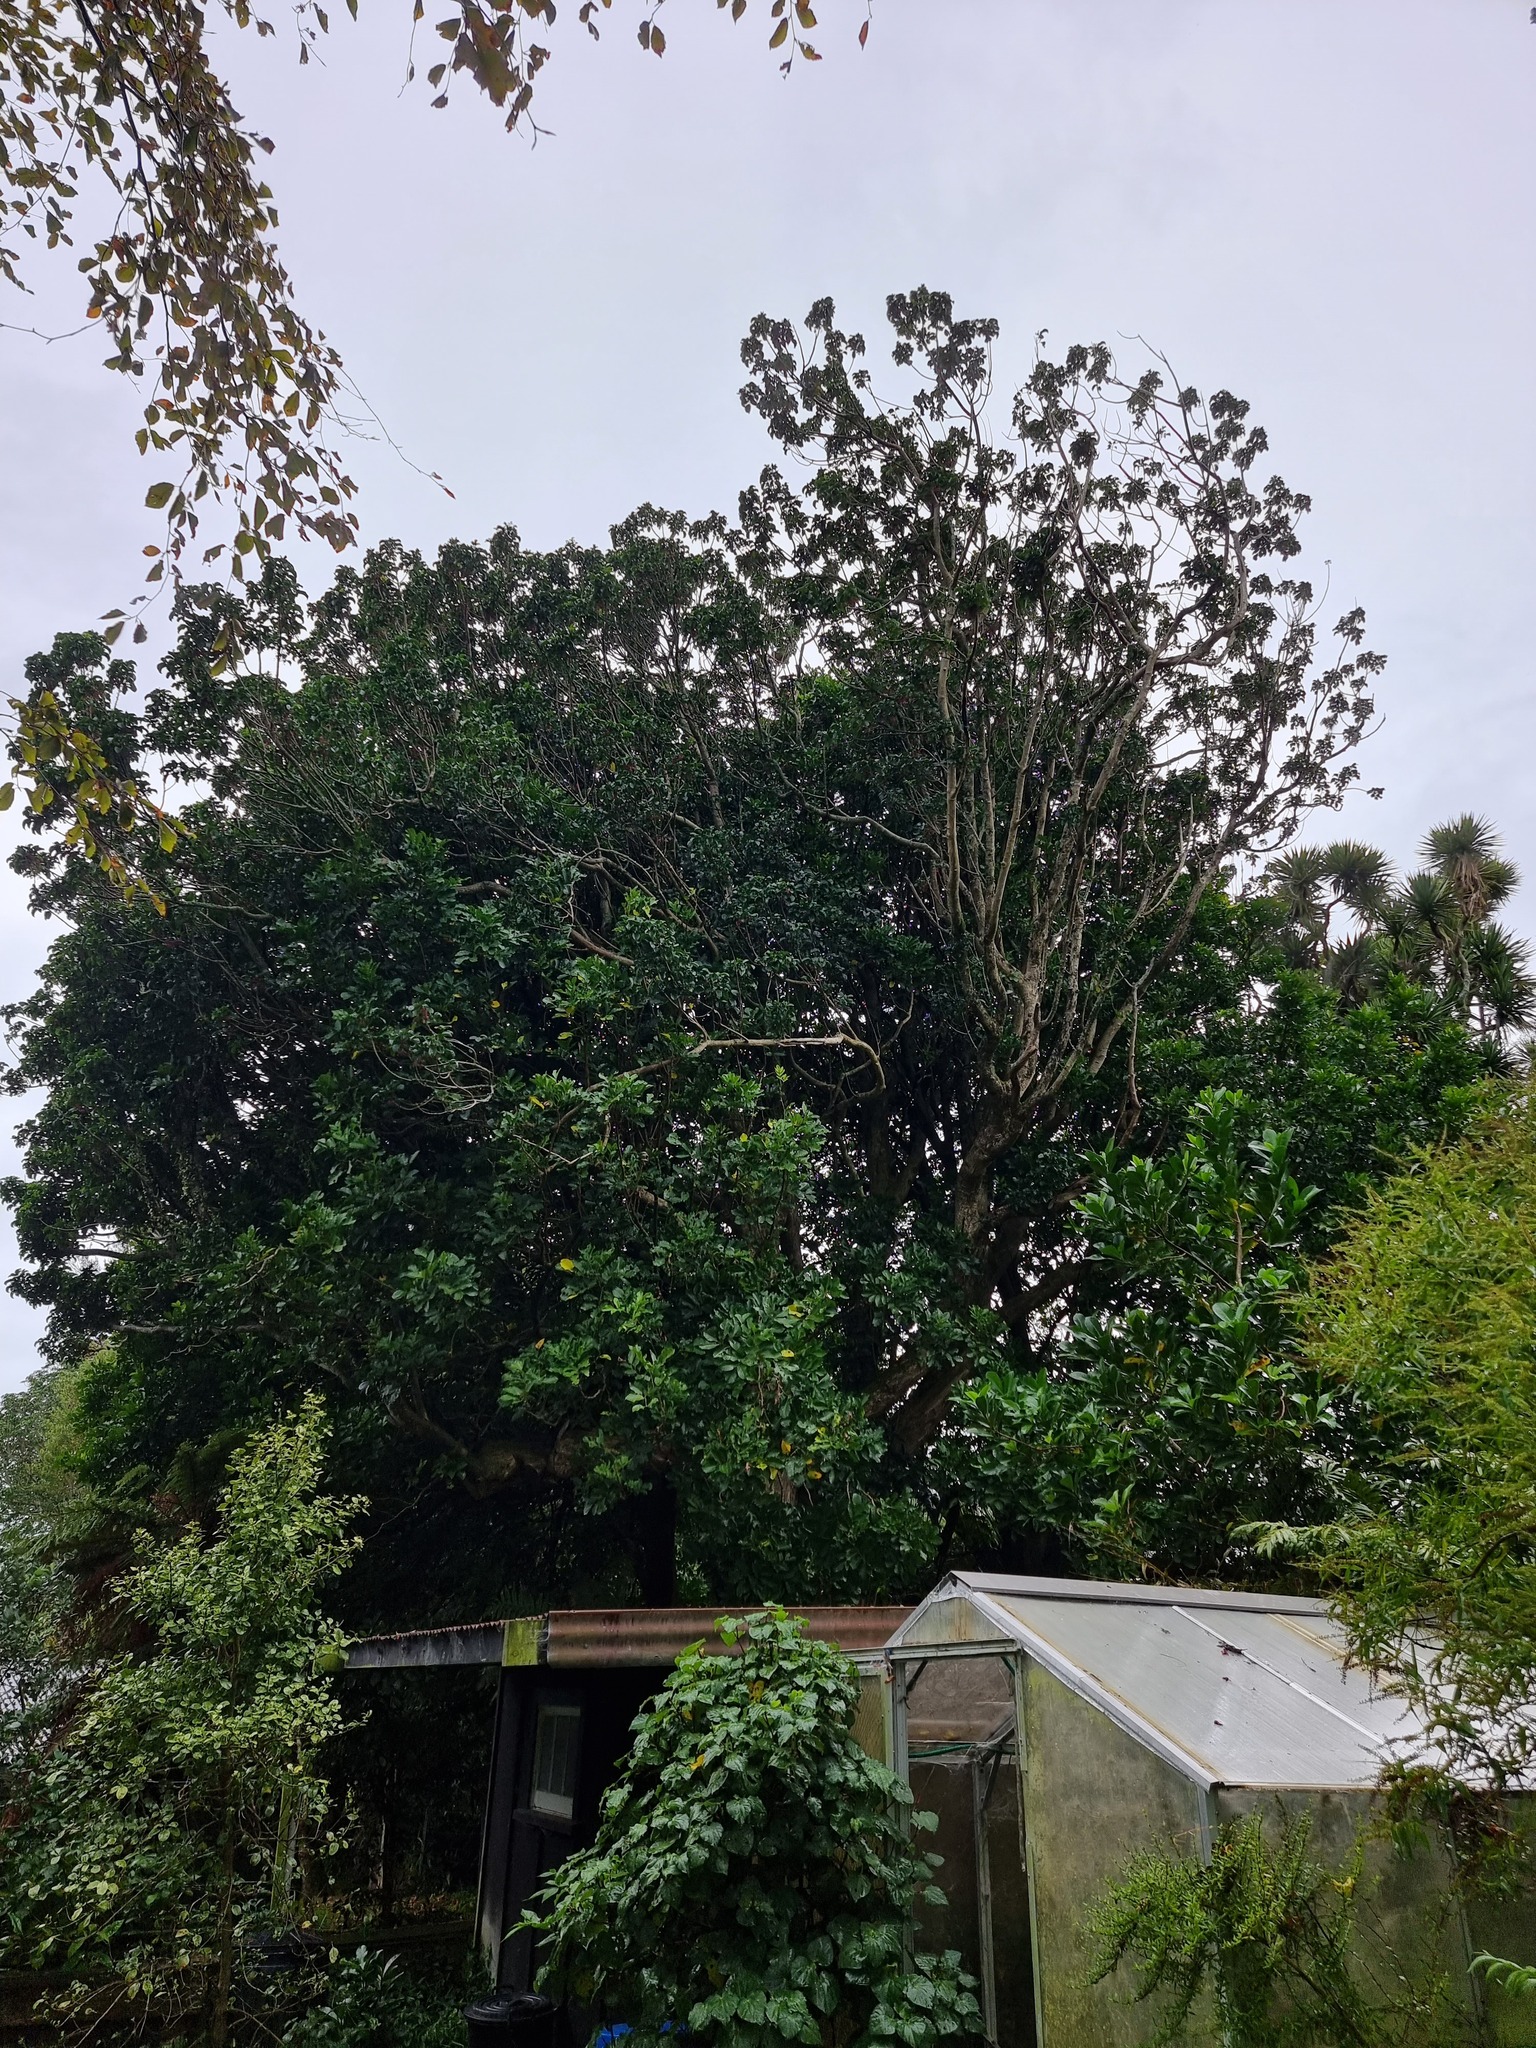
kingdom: Plantae
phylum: Tracheophyta
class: Magnoliopsida
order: Lamiales
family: Lamiaceae
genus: Vitex
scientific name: Vitex lucens
